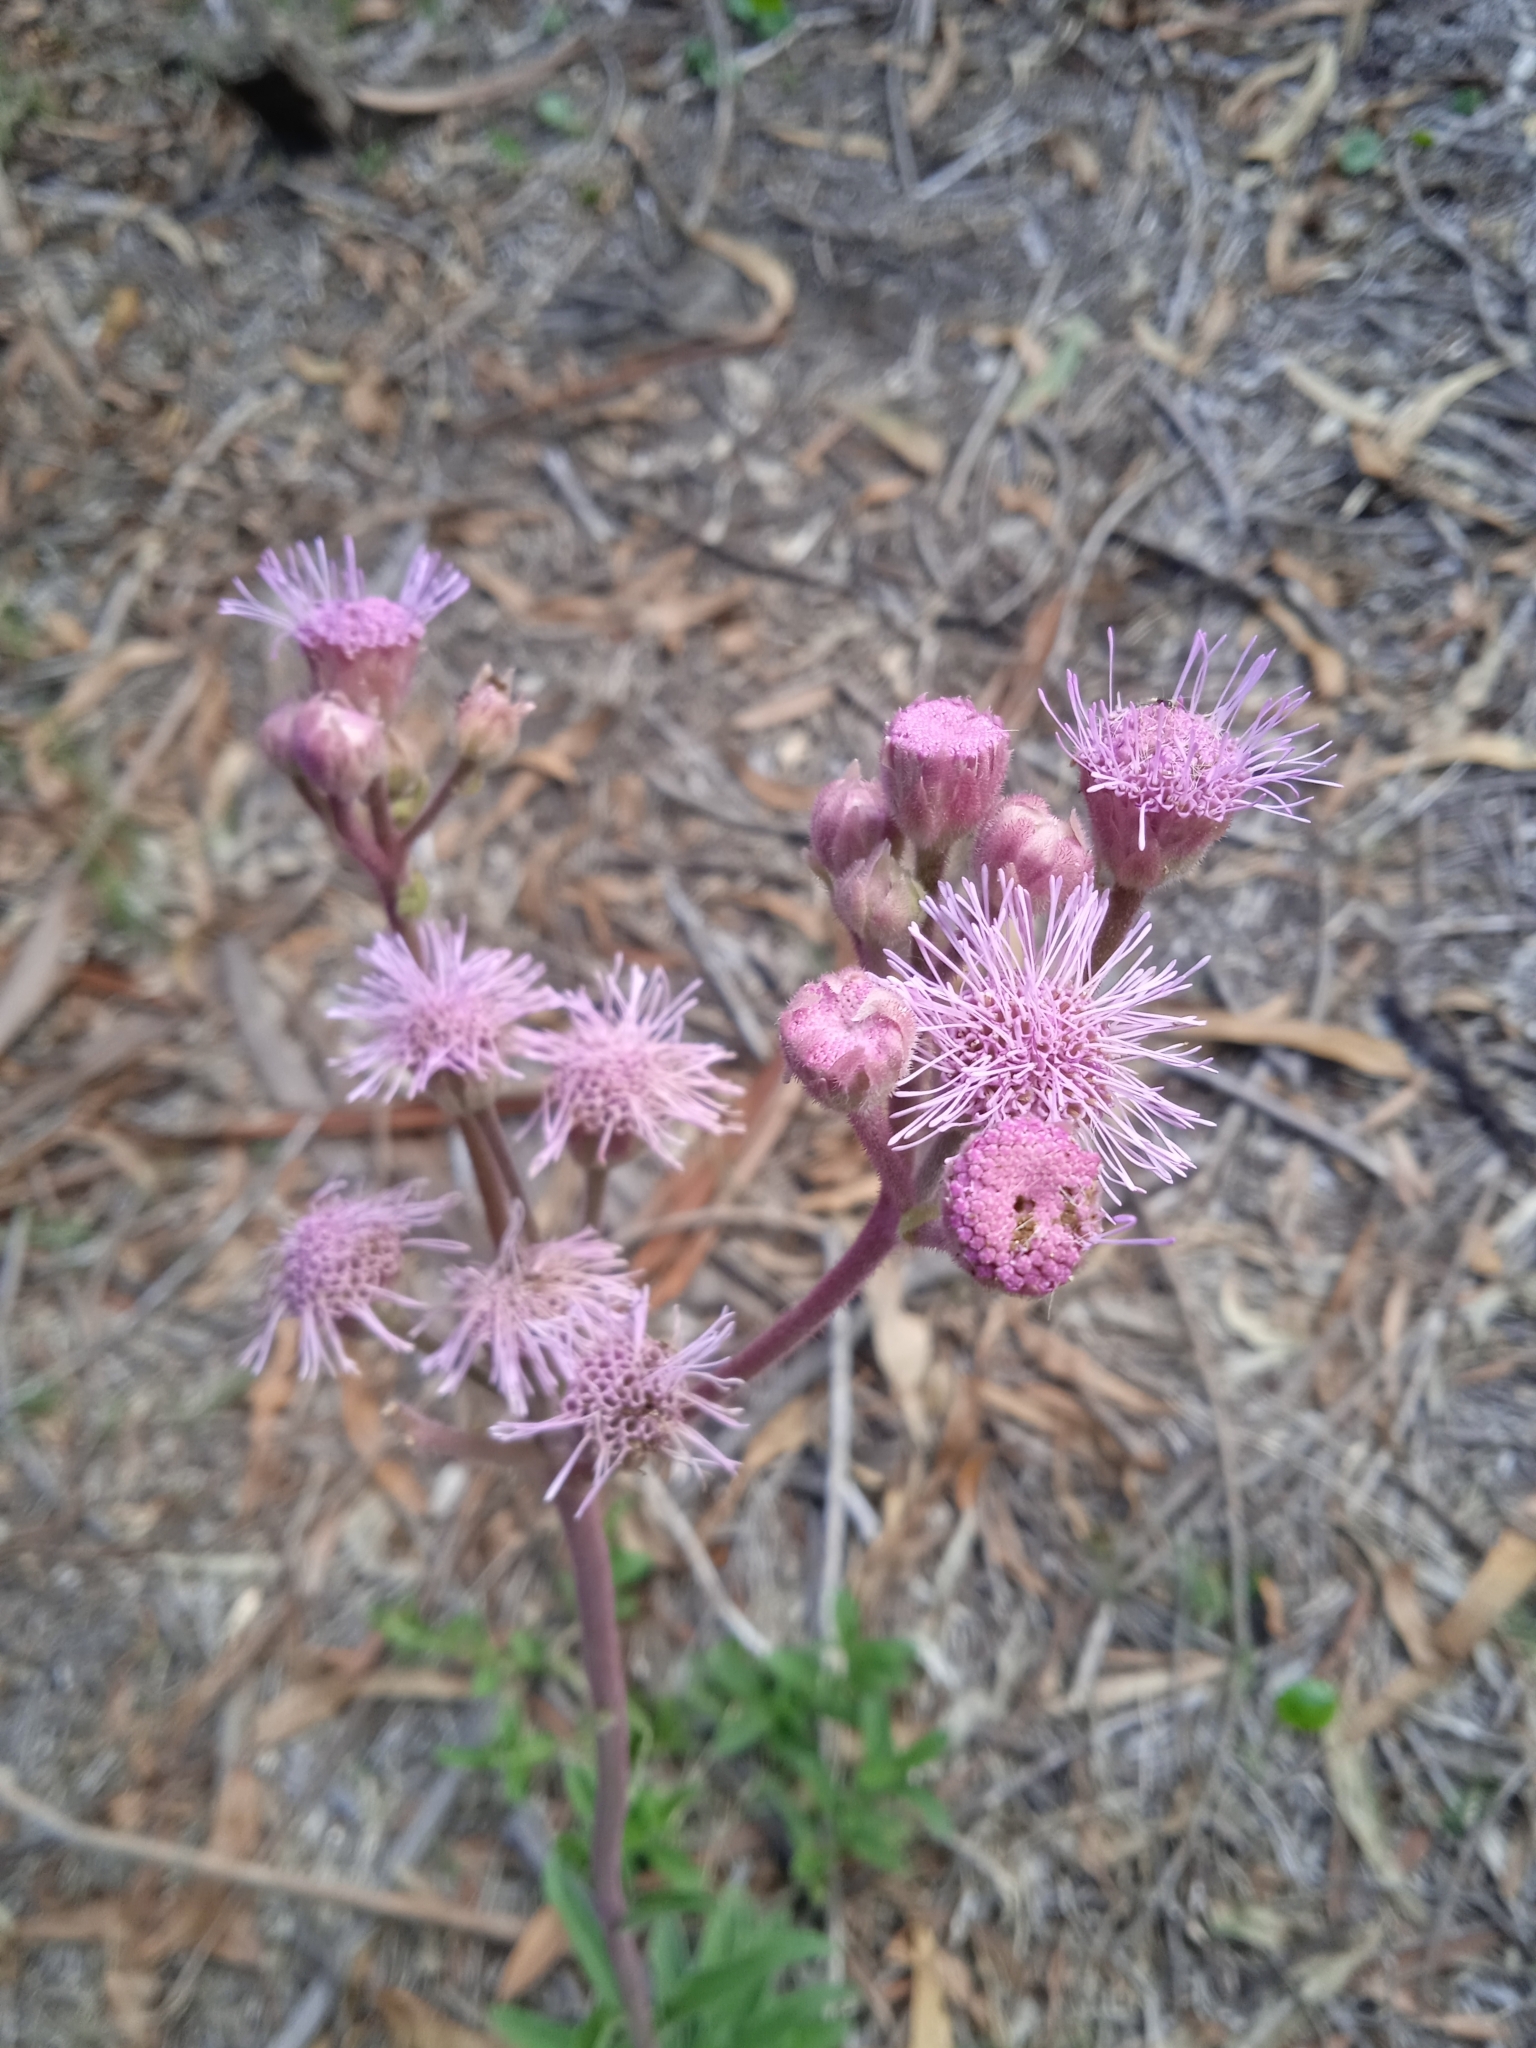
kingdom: Plantae
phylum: Tracheophyta
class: Magnoliopsida
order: Asterales
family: Asteraceae
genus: Campuloclinium
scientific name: Campuloclinium macrocephalum
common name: Pompomweed
